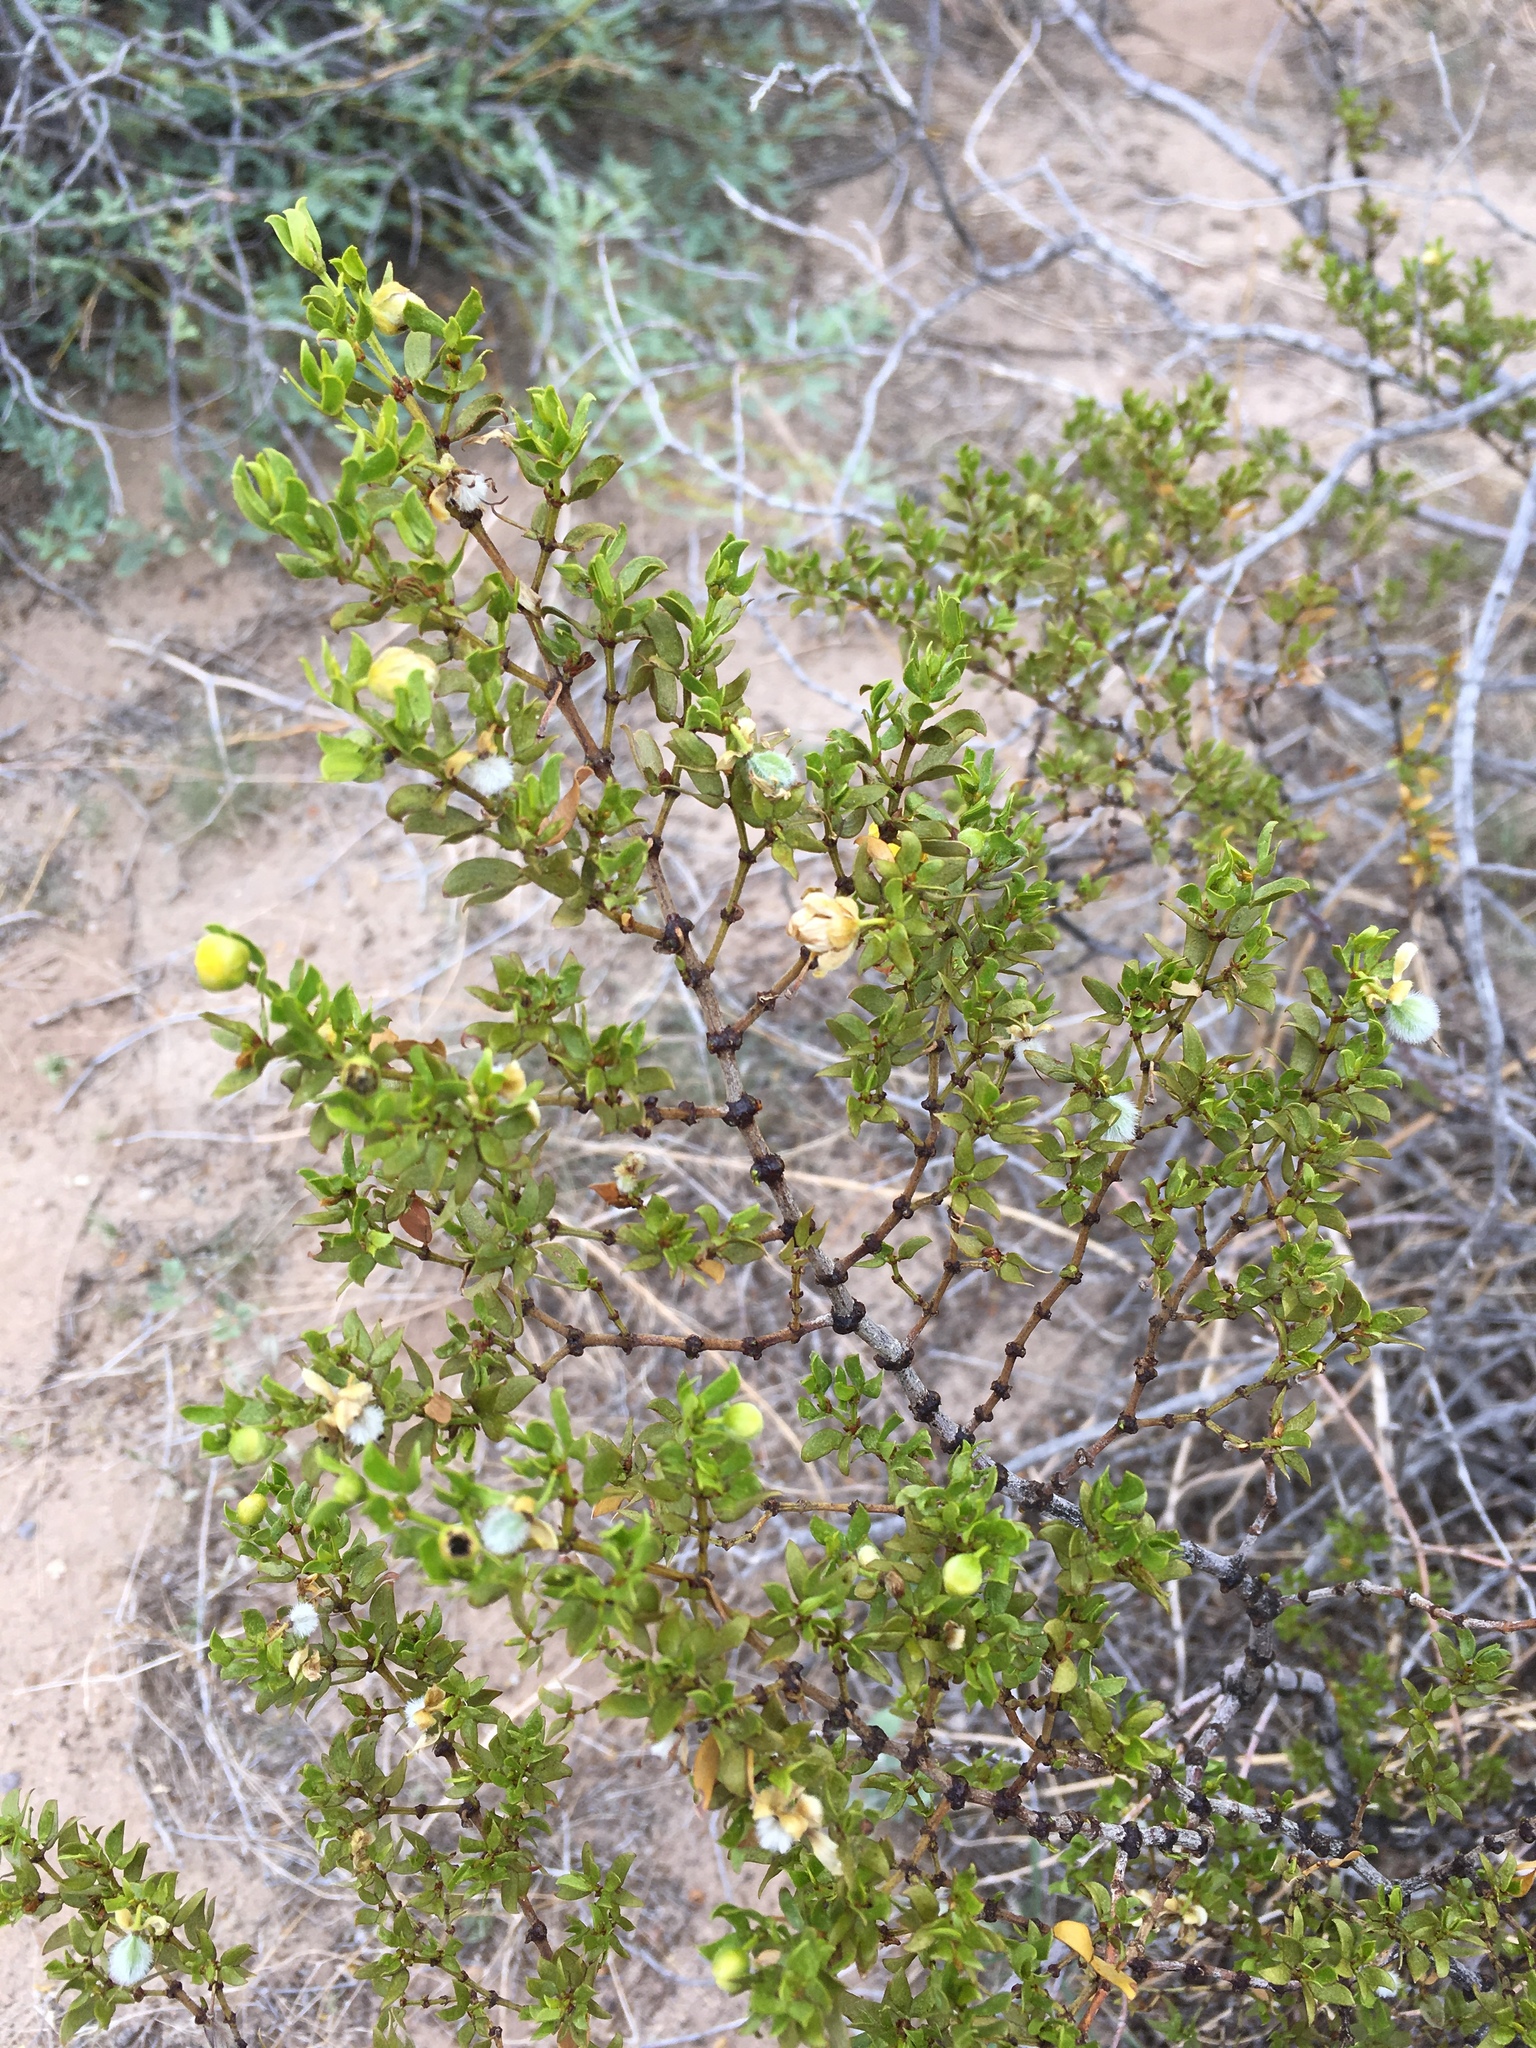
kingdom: Plantae
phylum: Tracheophyta
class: Magnoliopsida
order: Zygophyllales
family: Zygophyllaceae
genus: Larrea
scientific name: Larrea tridentata
